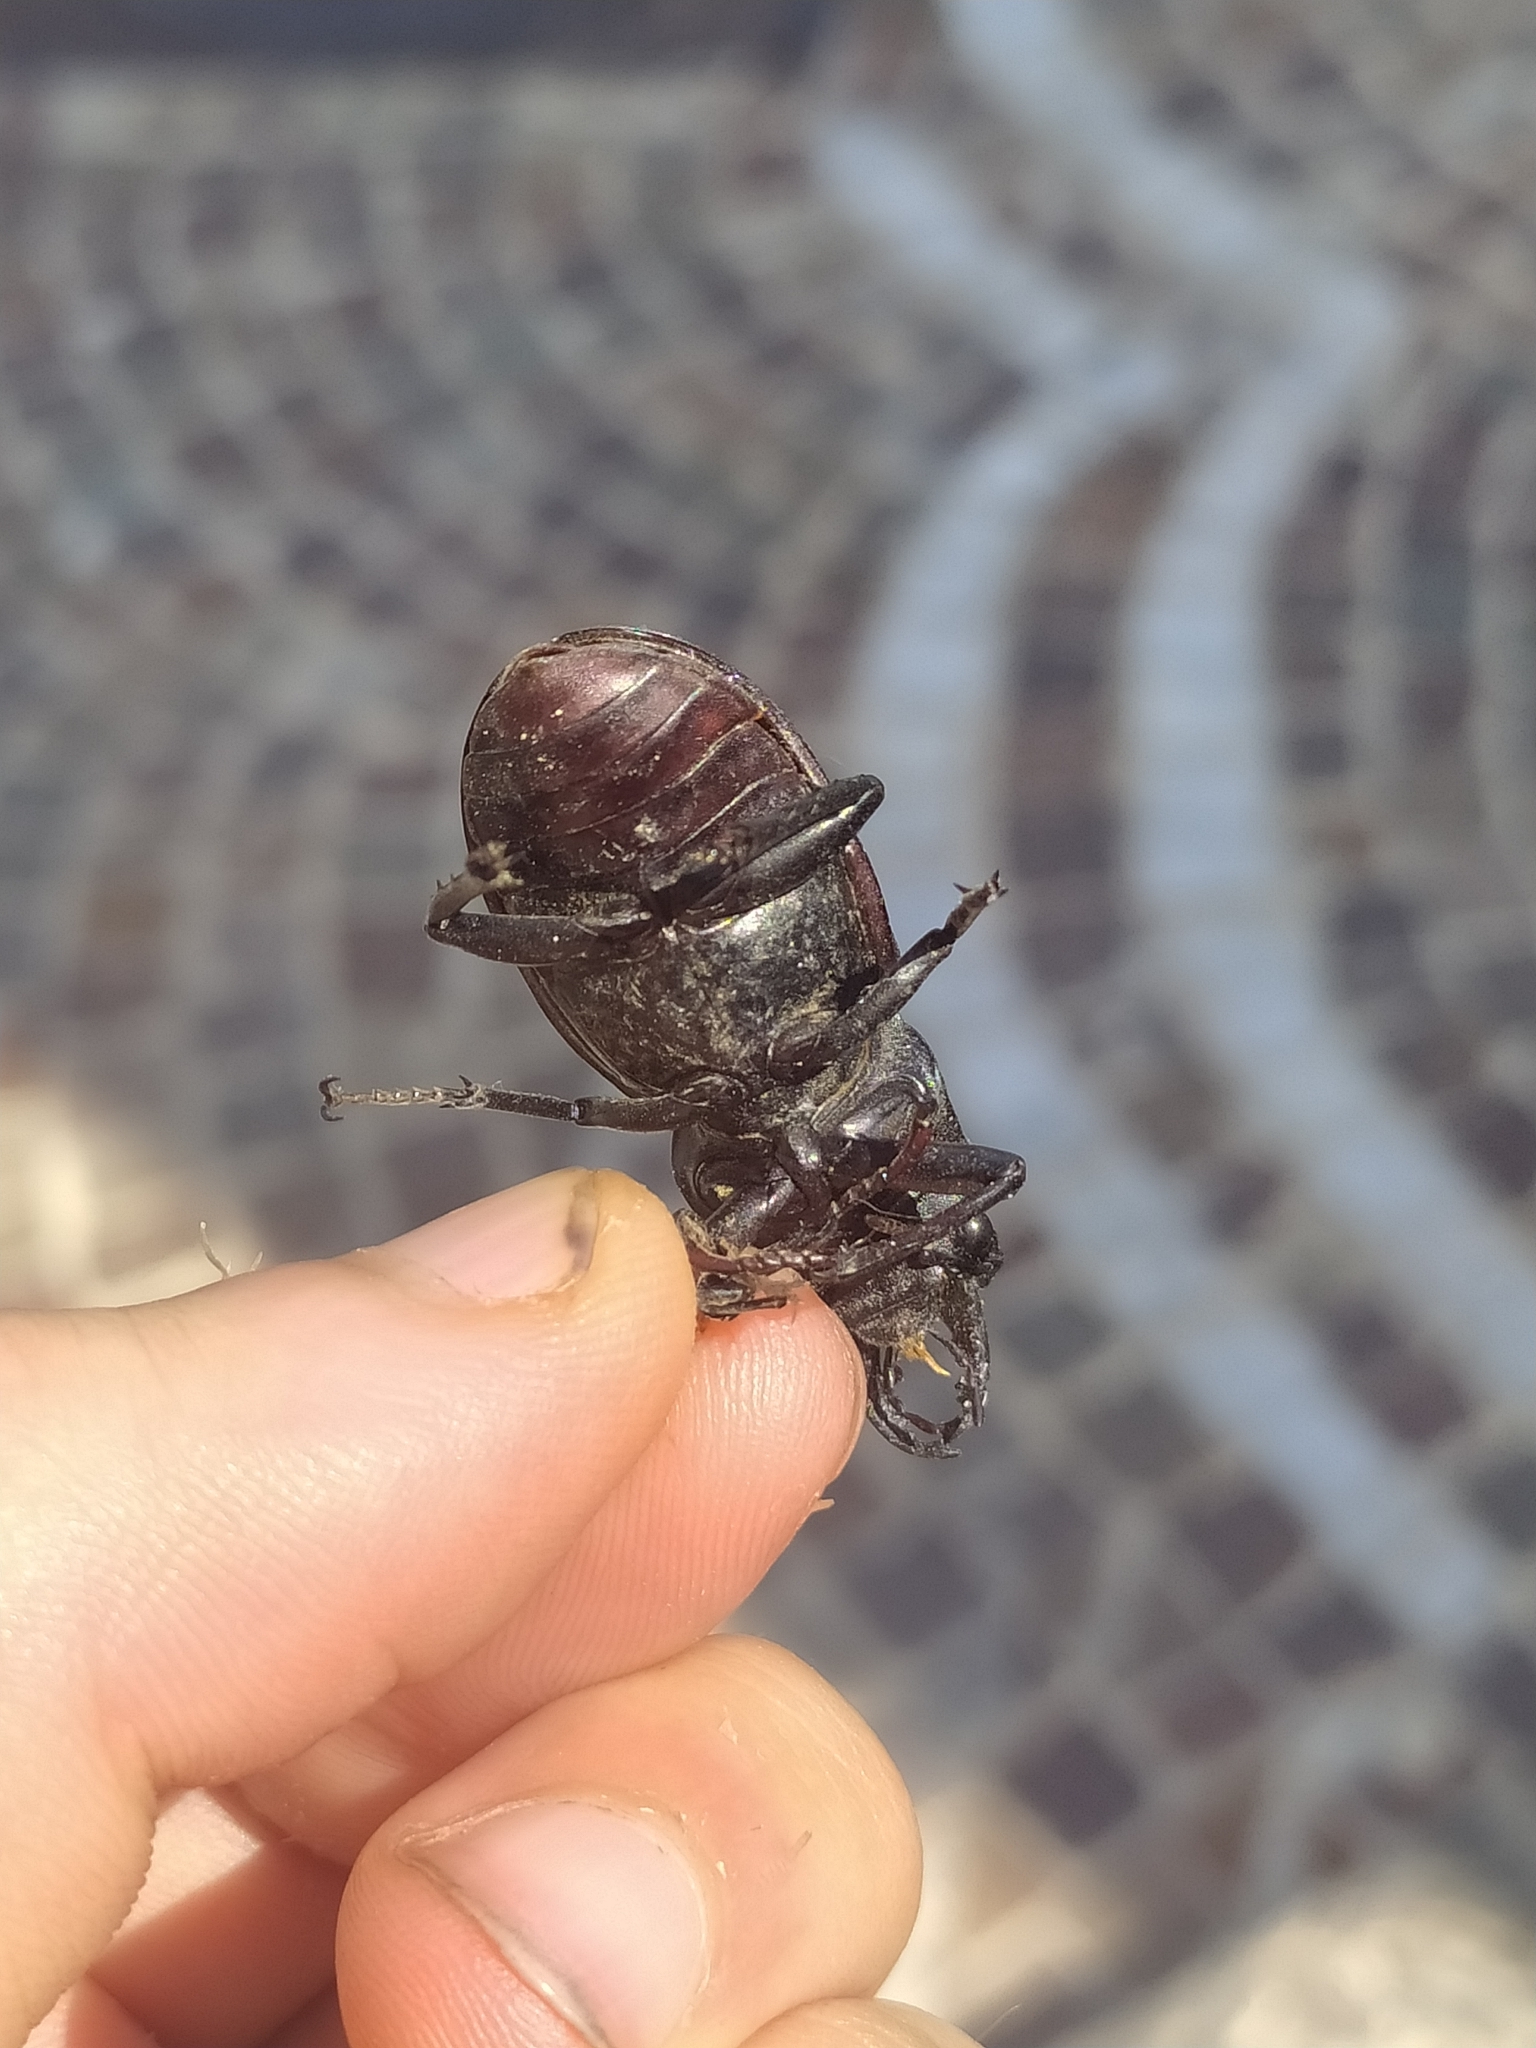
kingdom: Animalia
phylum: Arthropoda
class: Insecta
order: Coleoptera
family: Lucanidae
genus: Lucanus
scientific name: Lucanus tetraodon
